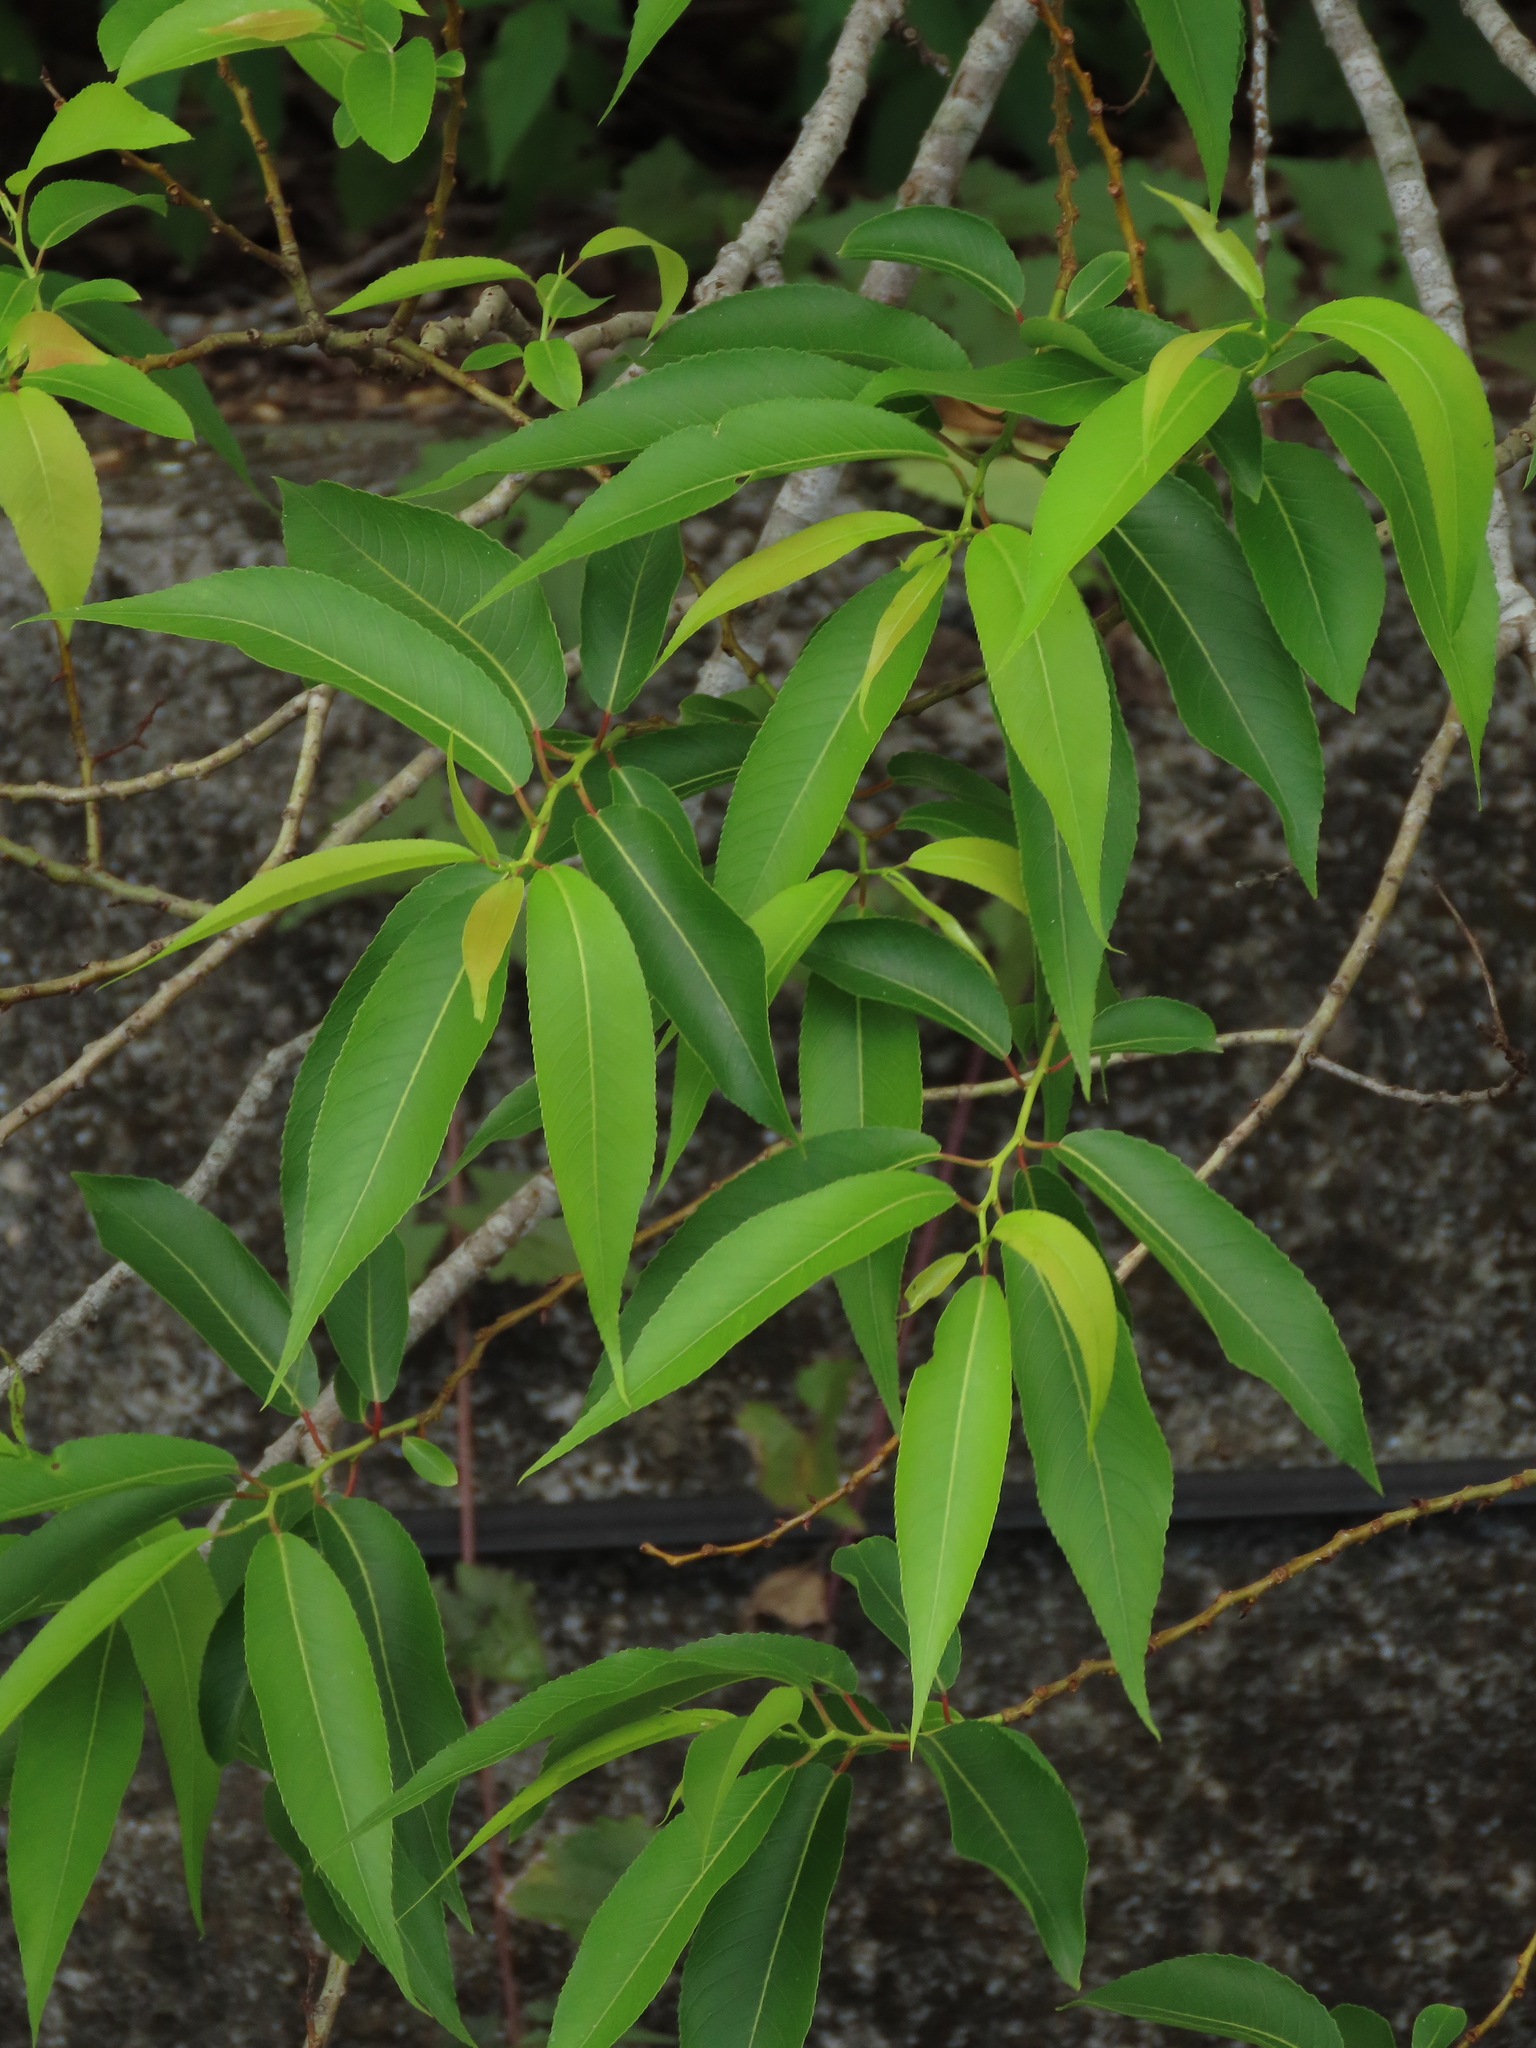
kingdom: Plantae
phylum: Tracheophyta
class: Magnoliopsida
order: Malpighiales
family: Salicaceae
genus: Salix
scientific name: Salix mesnyi
